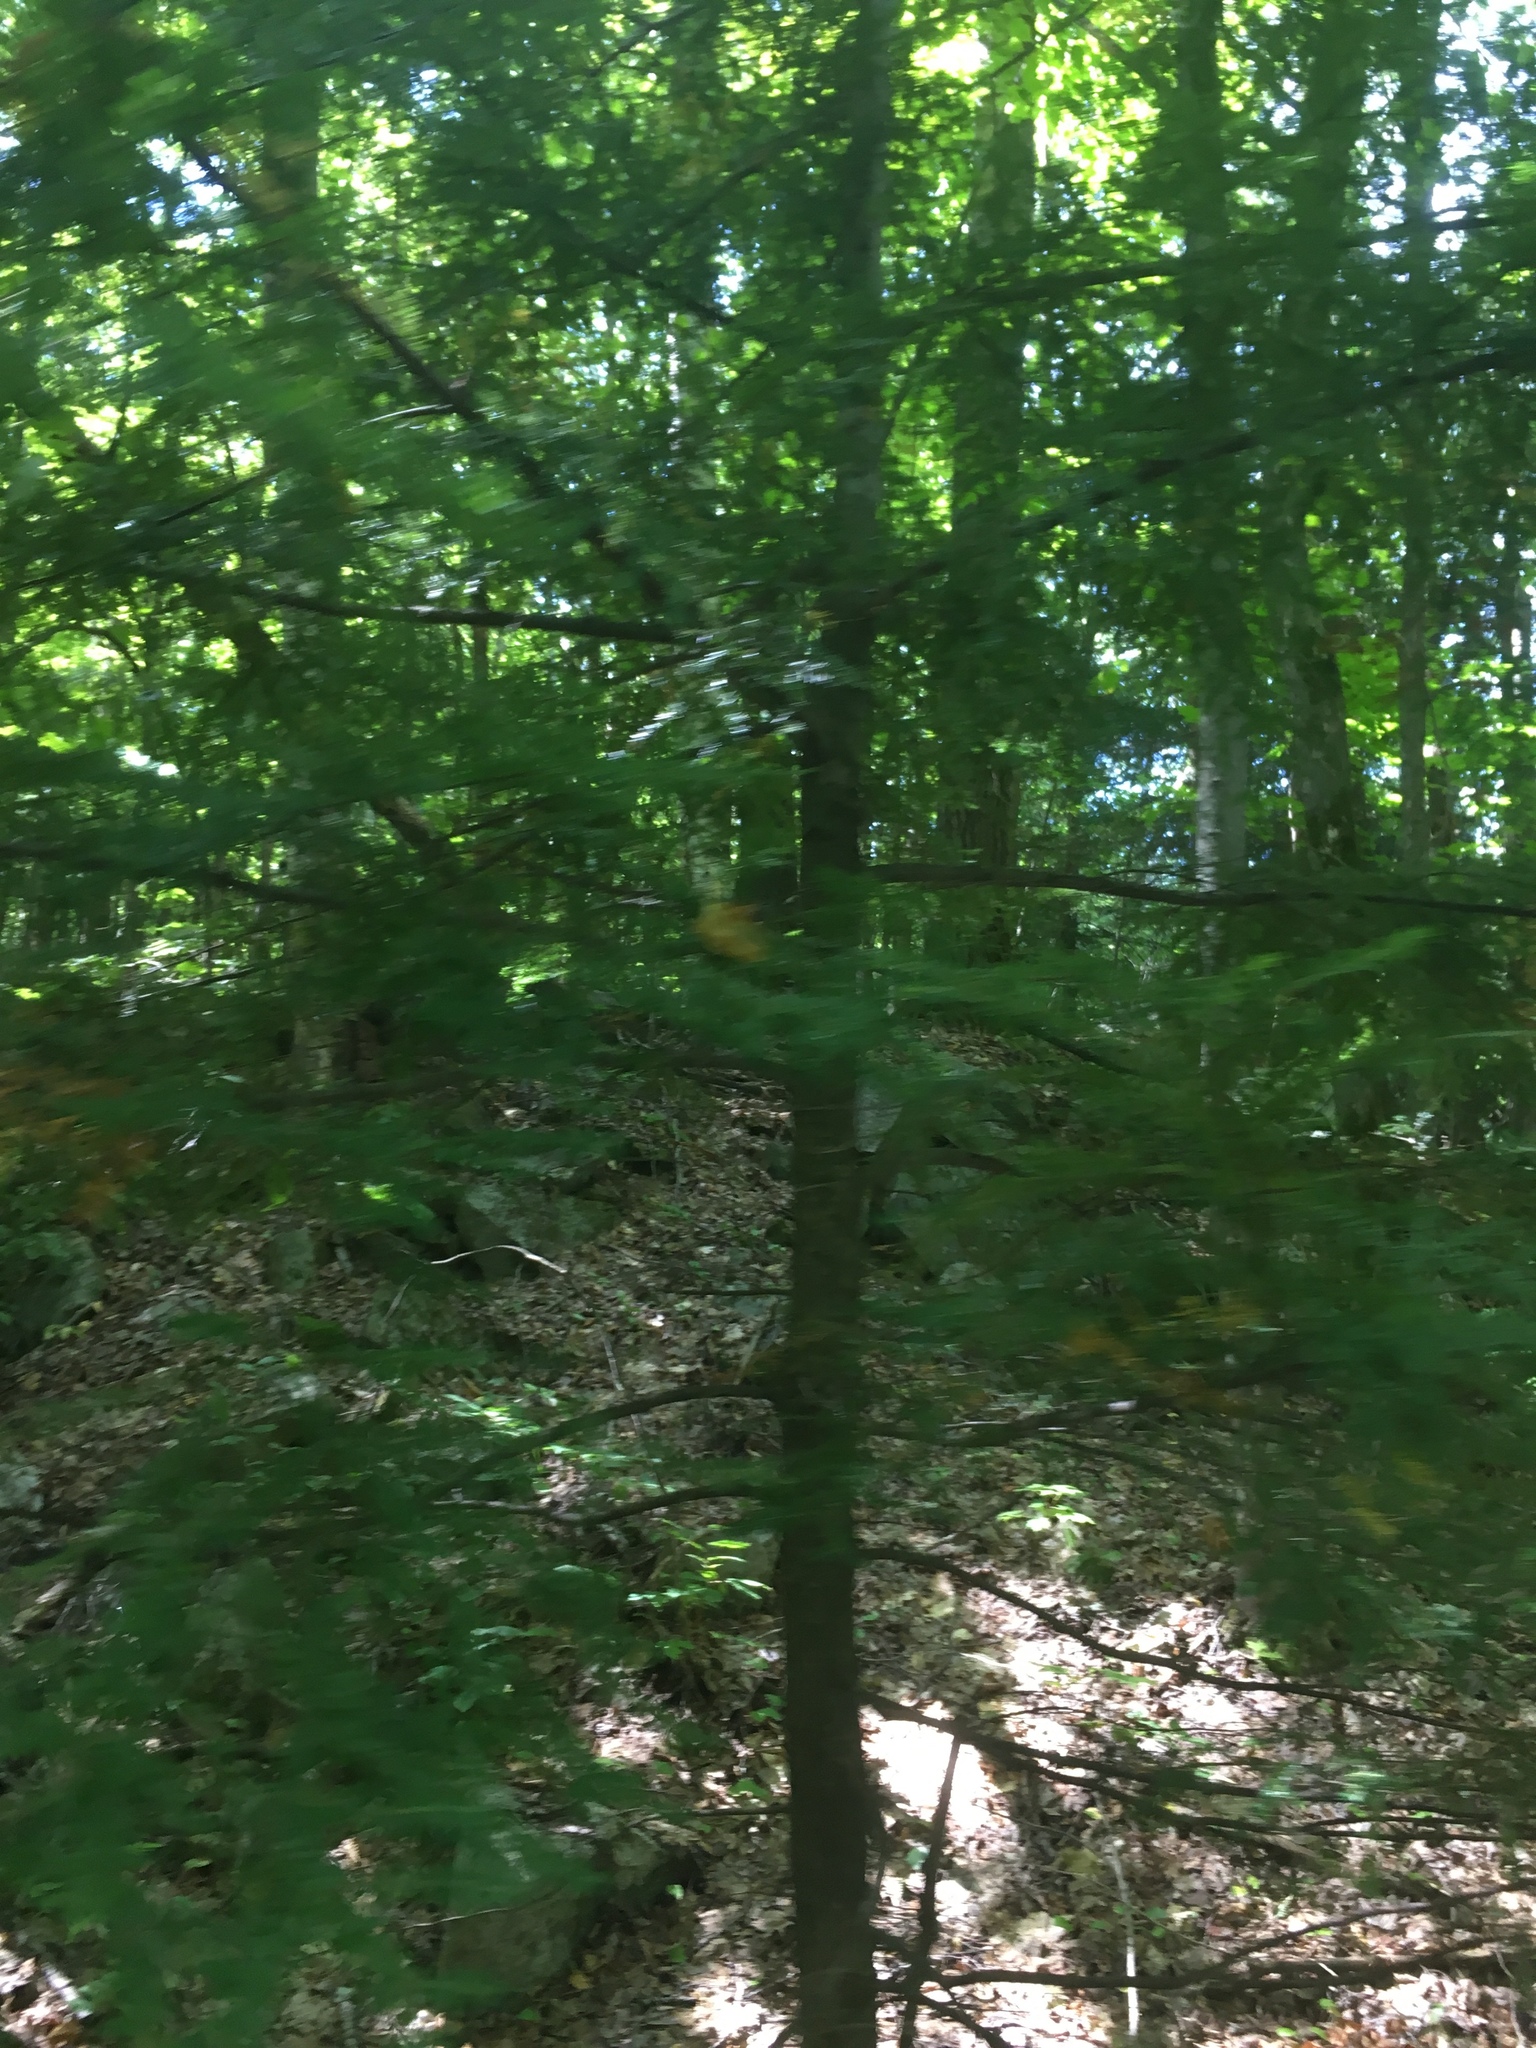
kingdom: Plantae
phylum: Tracheophyta
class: Pinopsida
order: Pinales
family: Pinaceae
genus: Tsuga
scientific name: Tsuga canadensis
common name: Eastern hemlock
